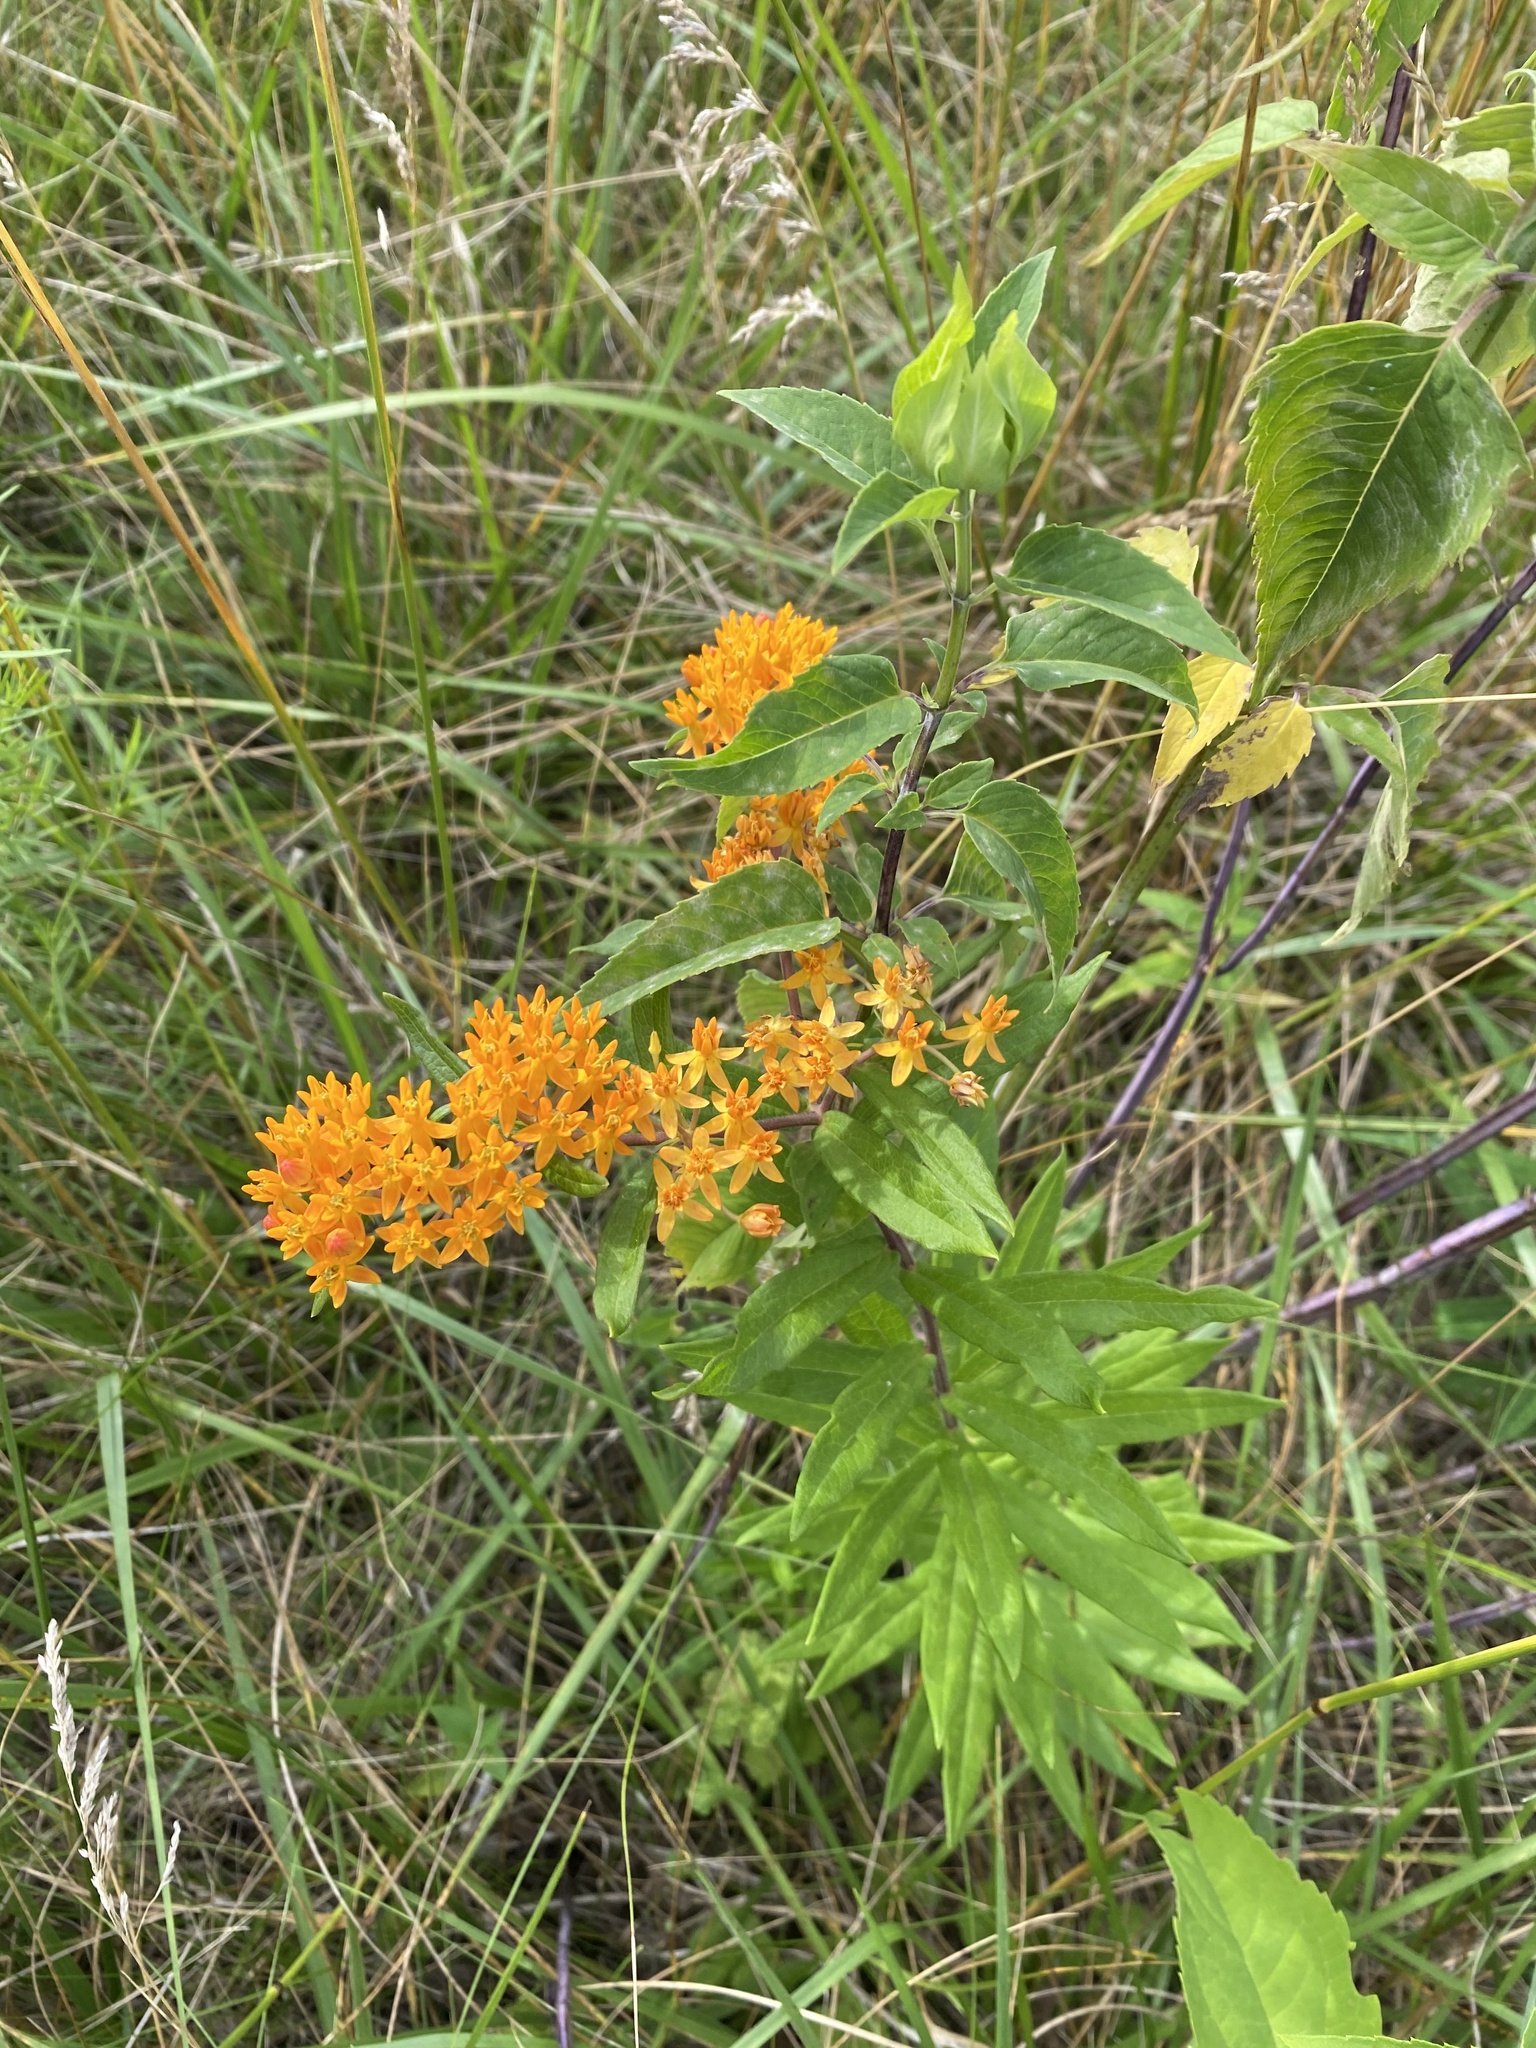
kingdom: Plantae
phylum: Tracheophyta
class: Magnoliopsida
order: Gentianales
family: Apocynaceae
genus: Asclepias
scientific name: Asclepias tuberosa
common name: Butterfly milkweed
